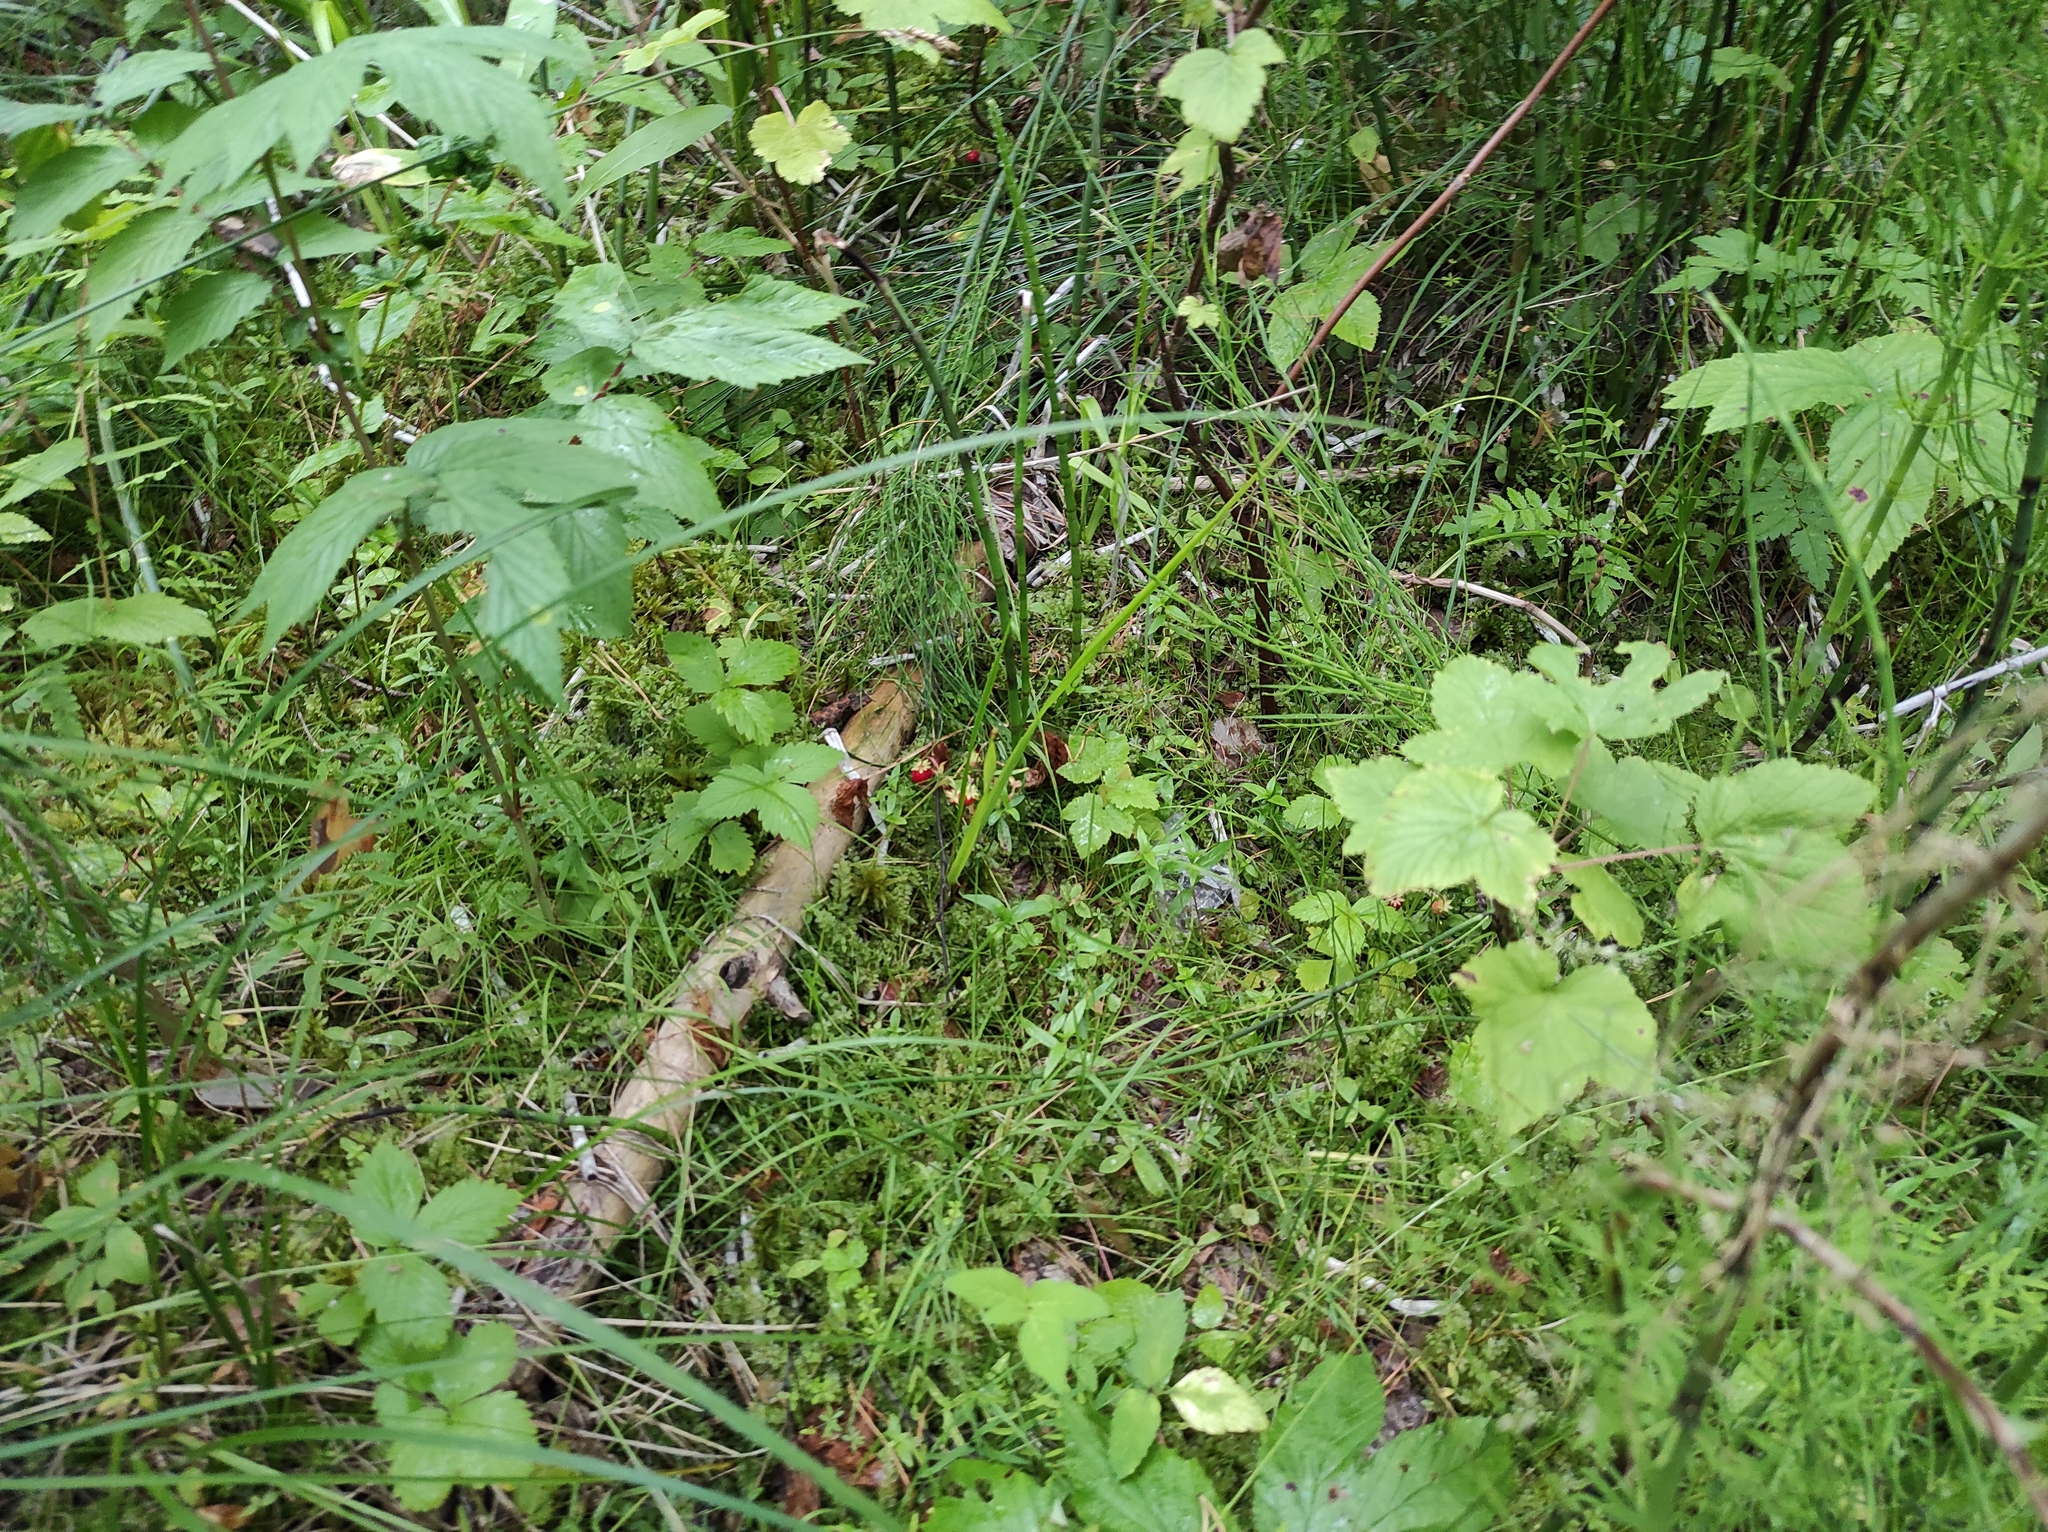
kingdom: Plantae
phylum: Tracheophyta
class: Magnoliopsida
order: Rosales
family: Rosaceae
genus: Fragaria
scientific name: Fragaria vesca
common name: Wild strawberry
